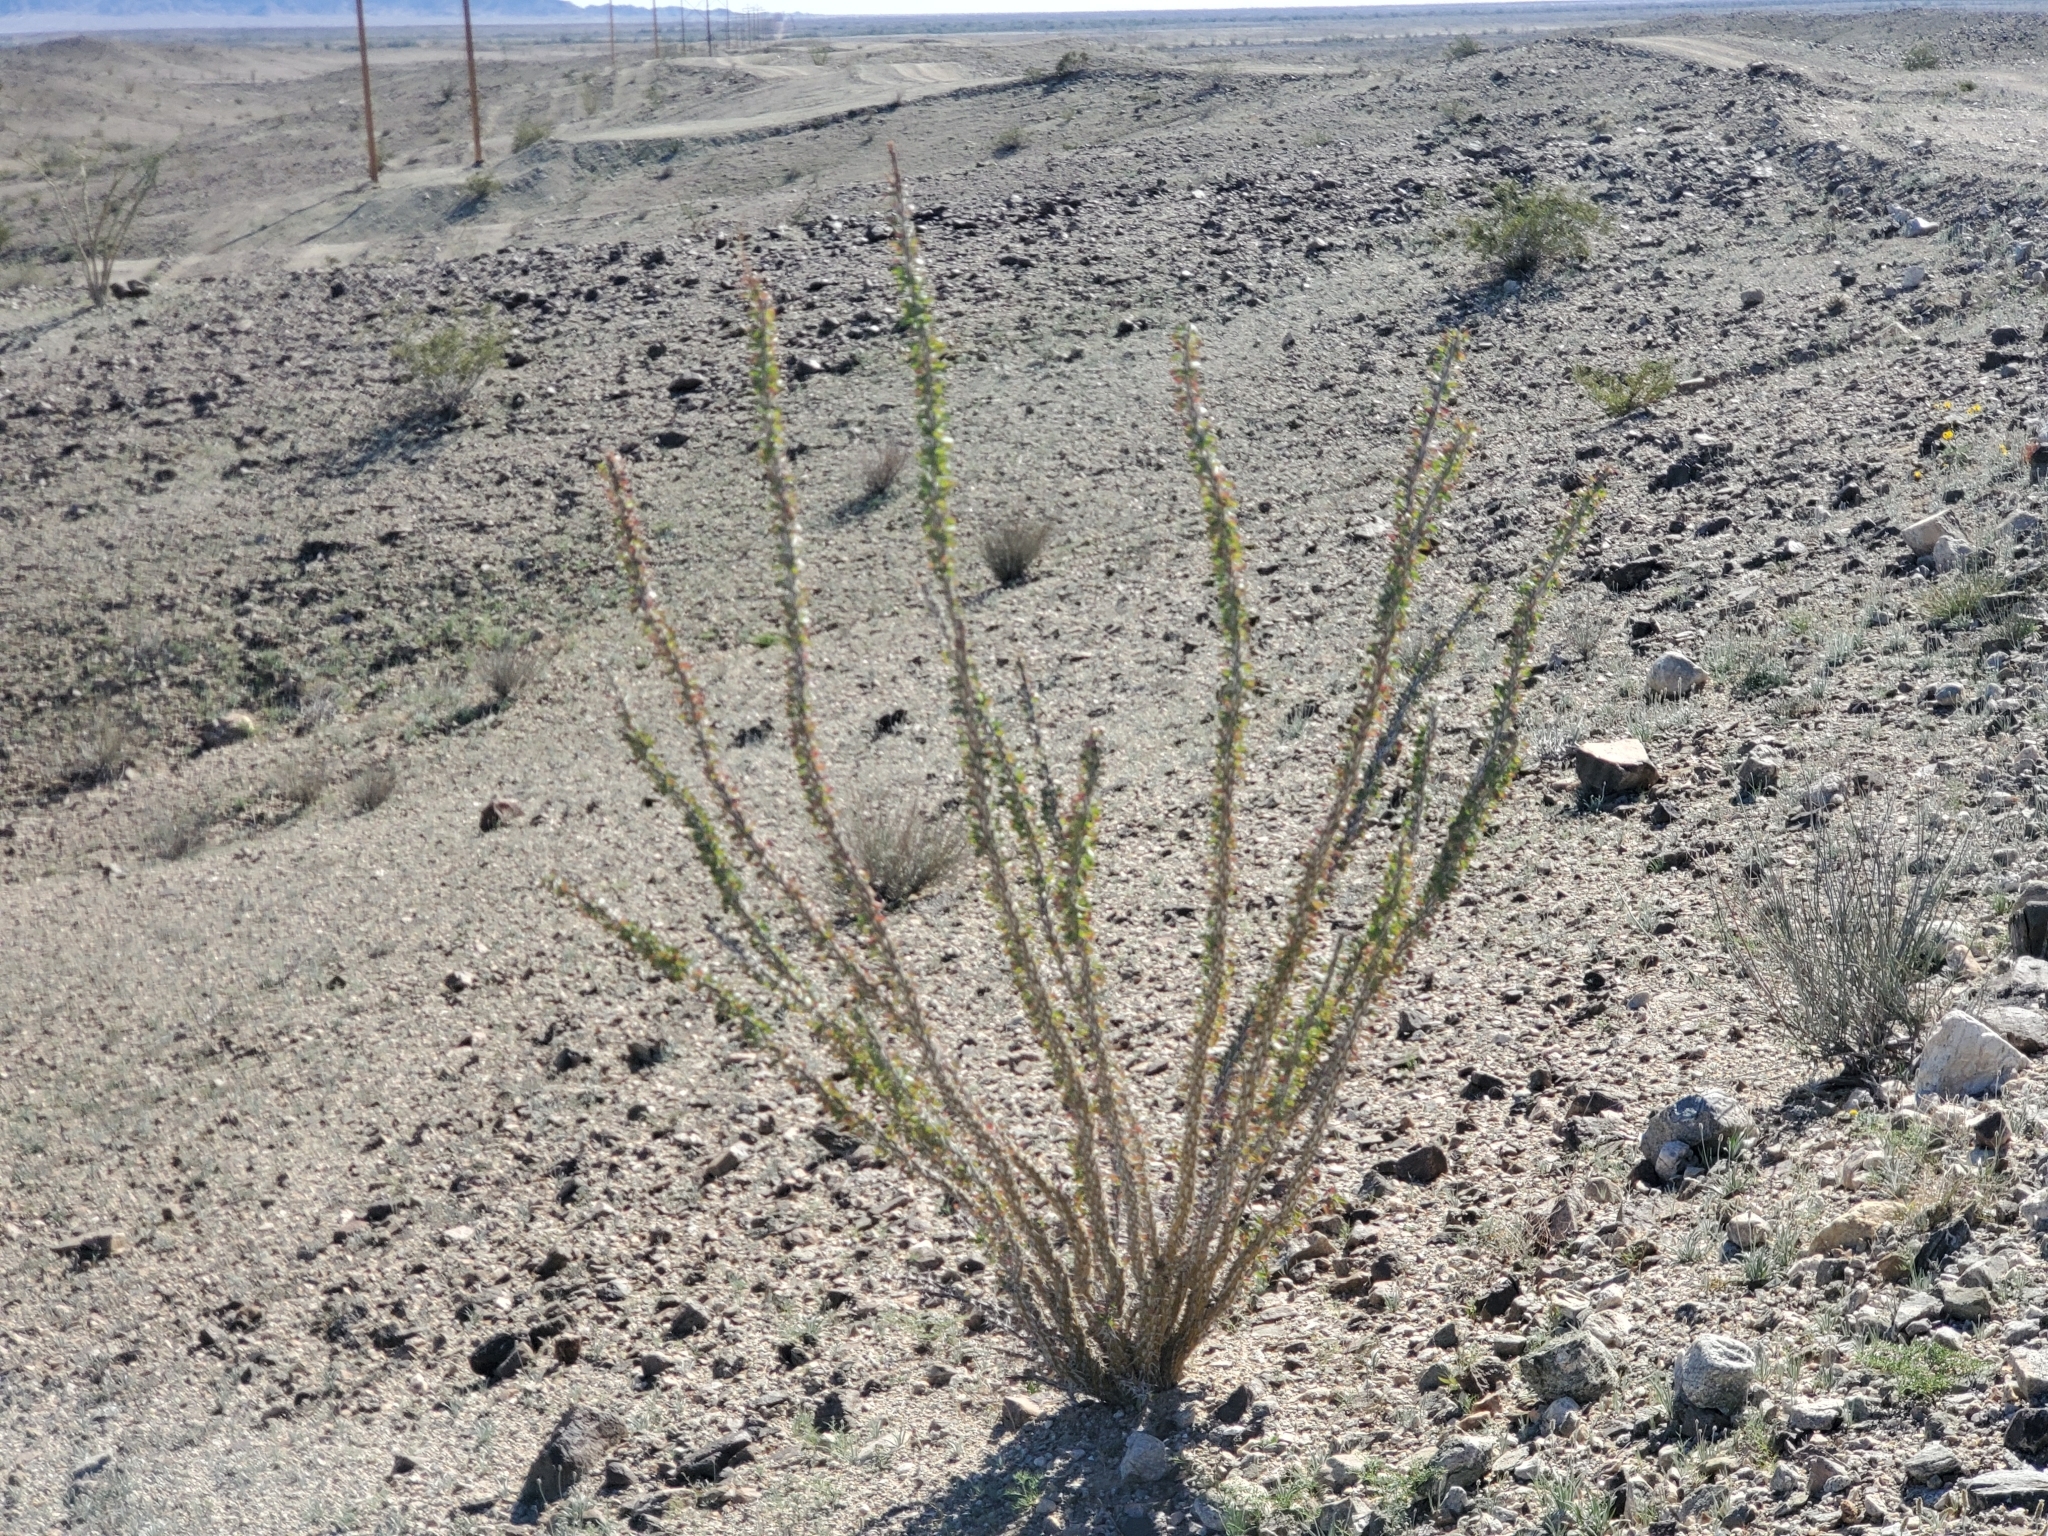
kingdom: Plantae
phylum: Tracheophyta
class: Magnoliopsida
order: Ericales
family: Fouquieriaceae
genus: Fouquieria
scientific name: Fouquieria splendens
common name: Vine-cactus
